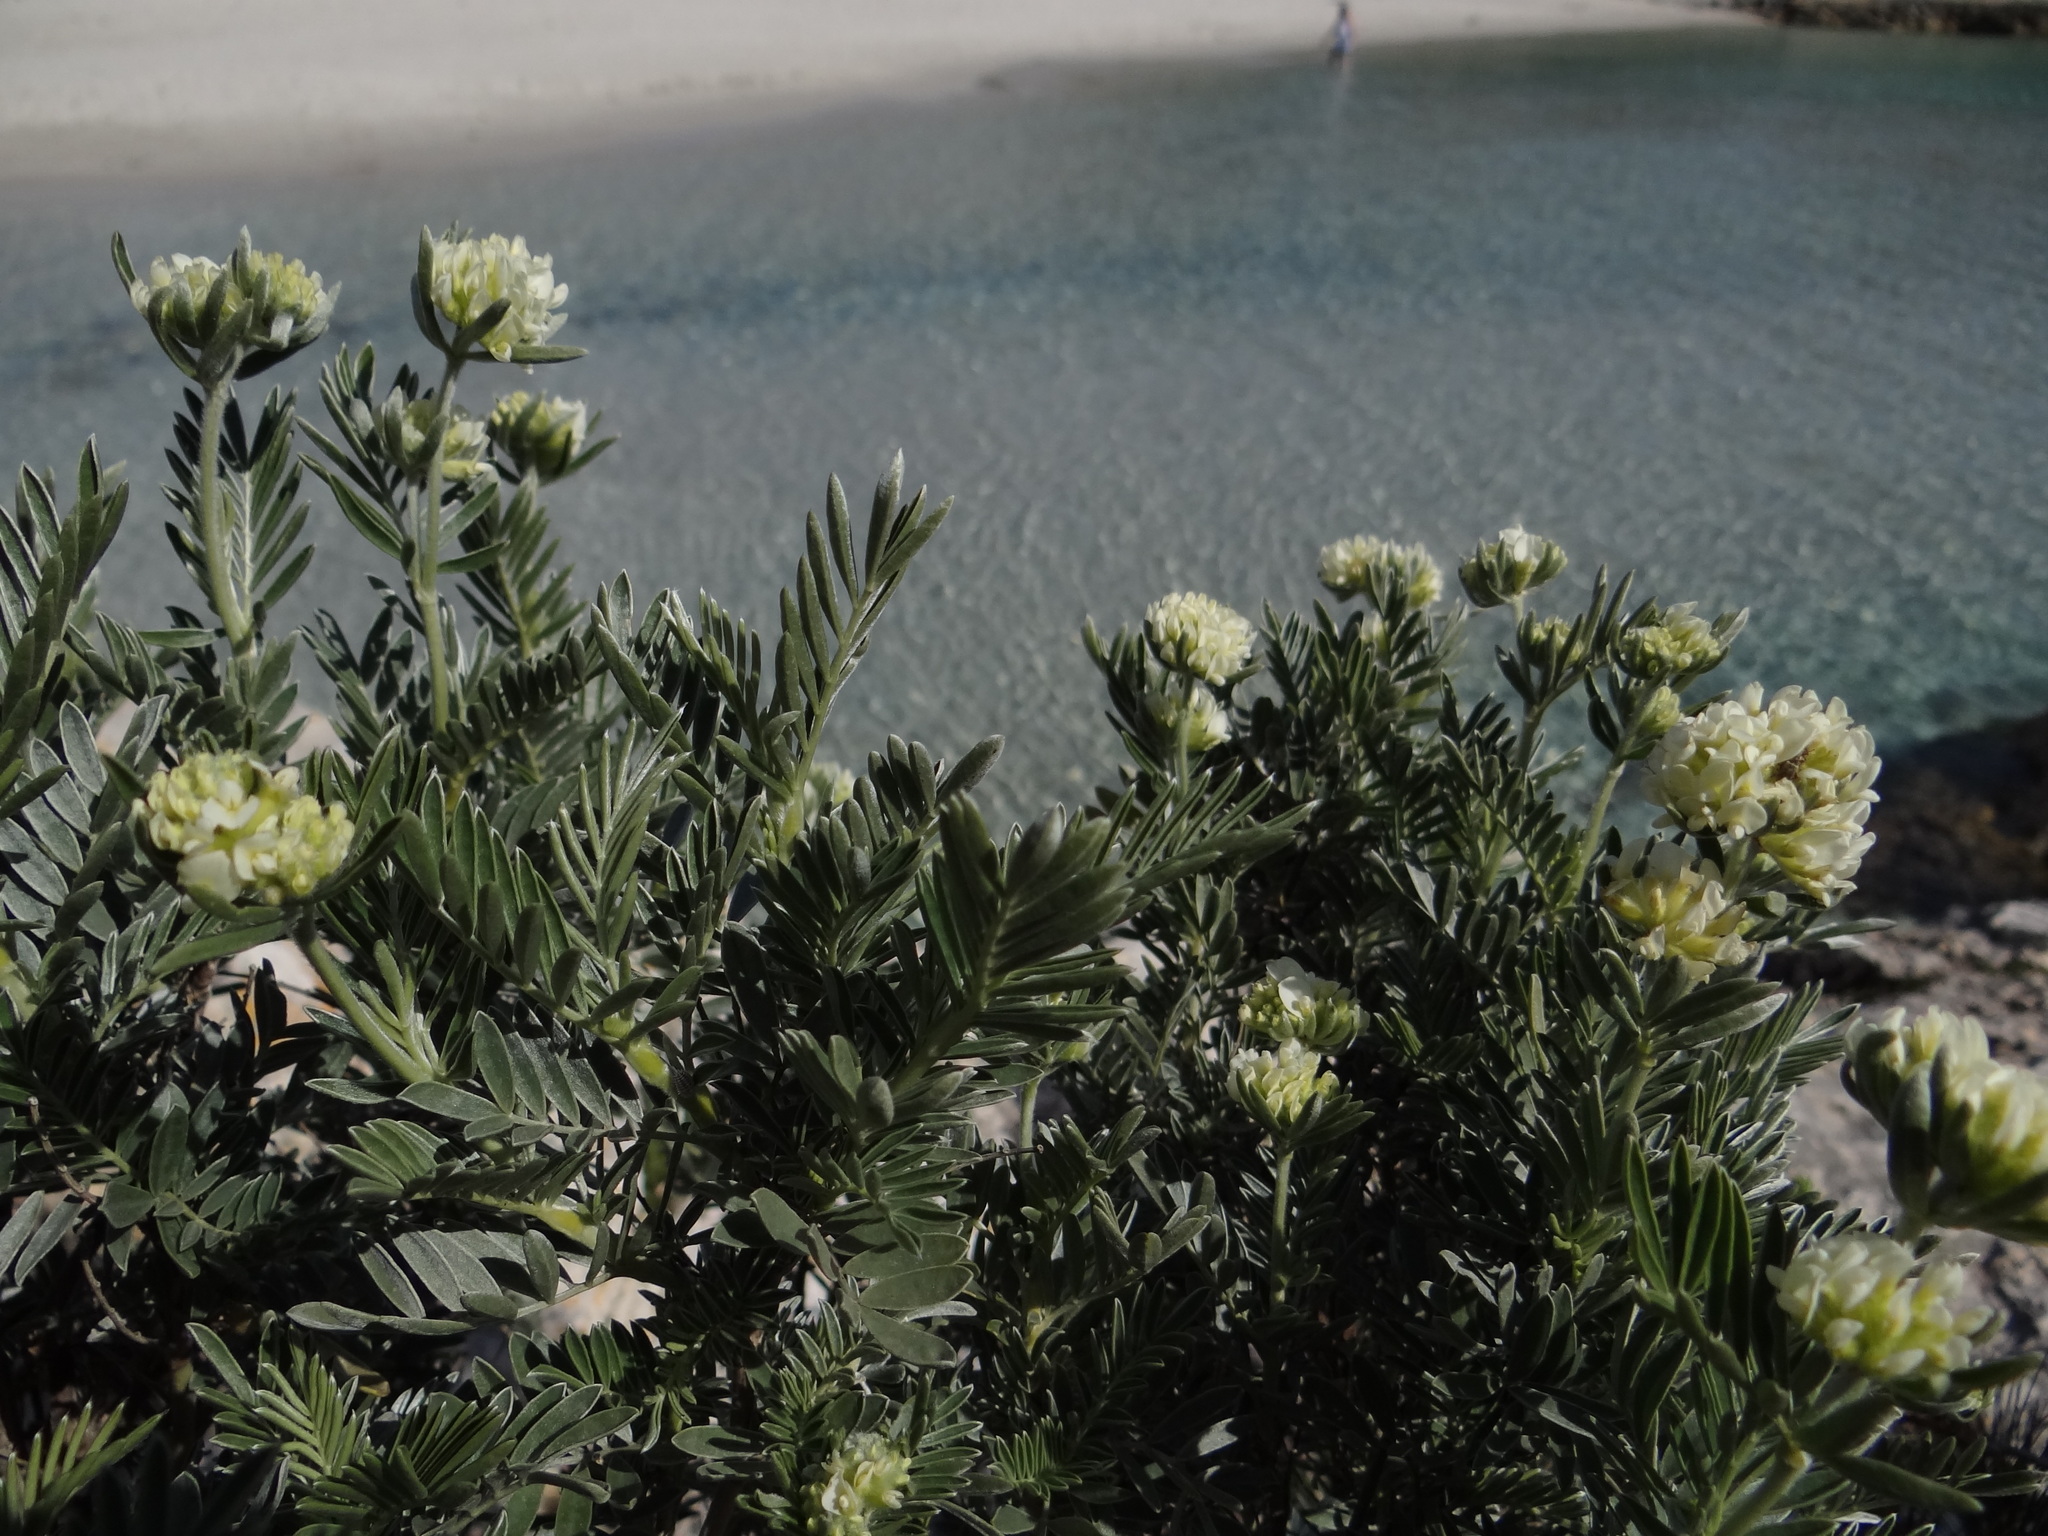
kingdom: Plantae
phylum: Tracheophyta
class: Magnoliopsida
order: Fabales
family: Fabaceae
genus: Anthyllis
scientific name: Anthyllis barba-jovis
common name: Jupiter's-beard
